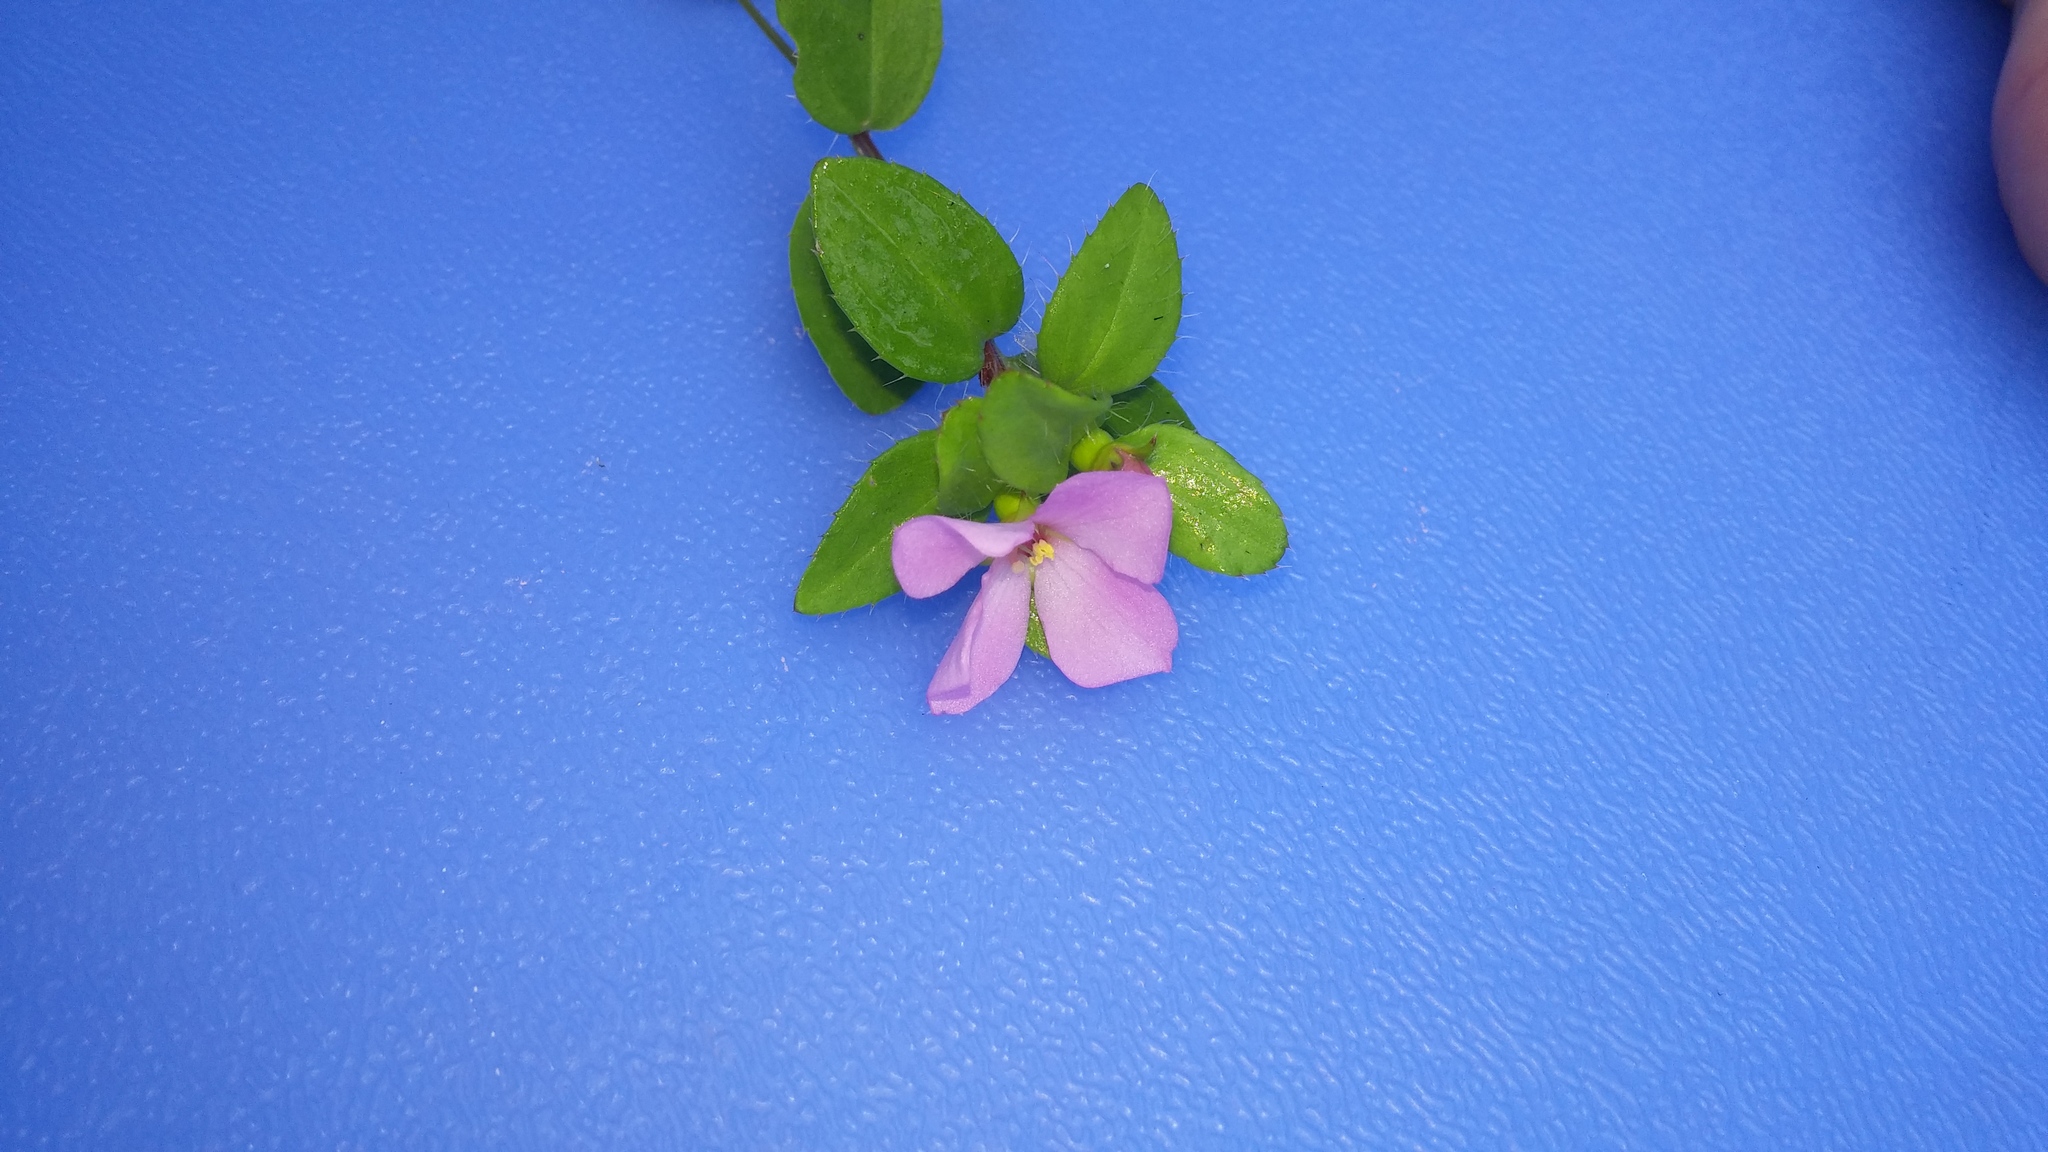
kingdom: Plantae
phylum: Tracheophyta
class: Magnoliopsida
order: Myrtales
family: Melastomataceae
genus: Rhexia
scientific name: Rhexia petiolata
